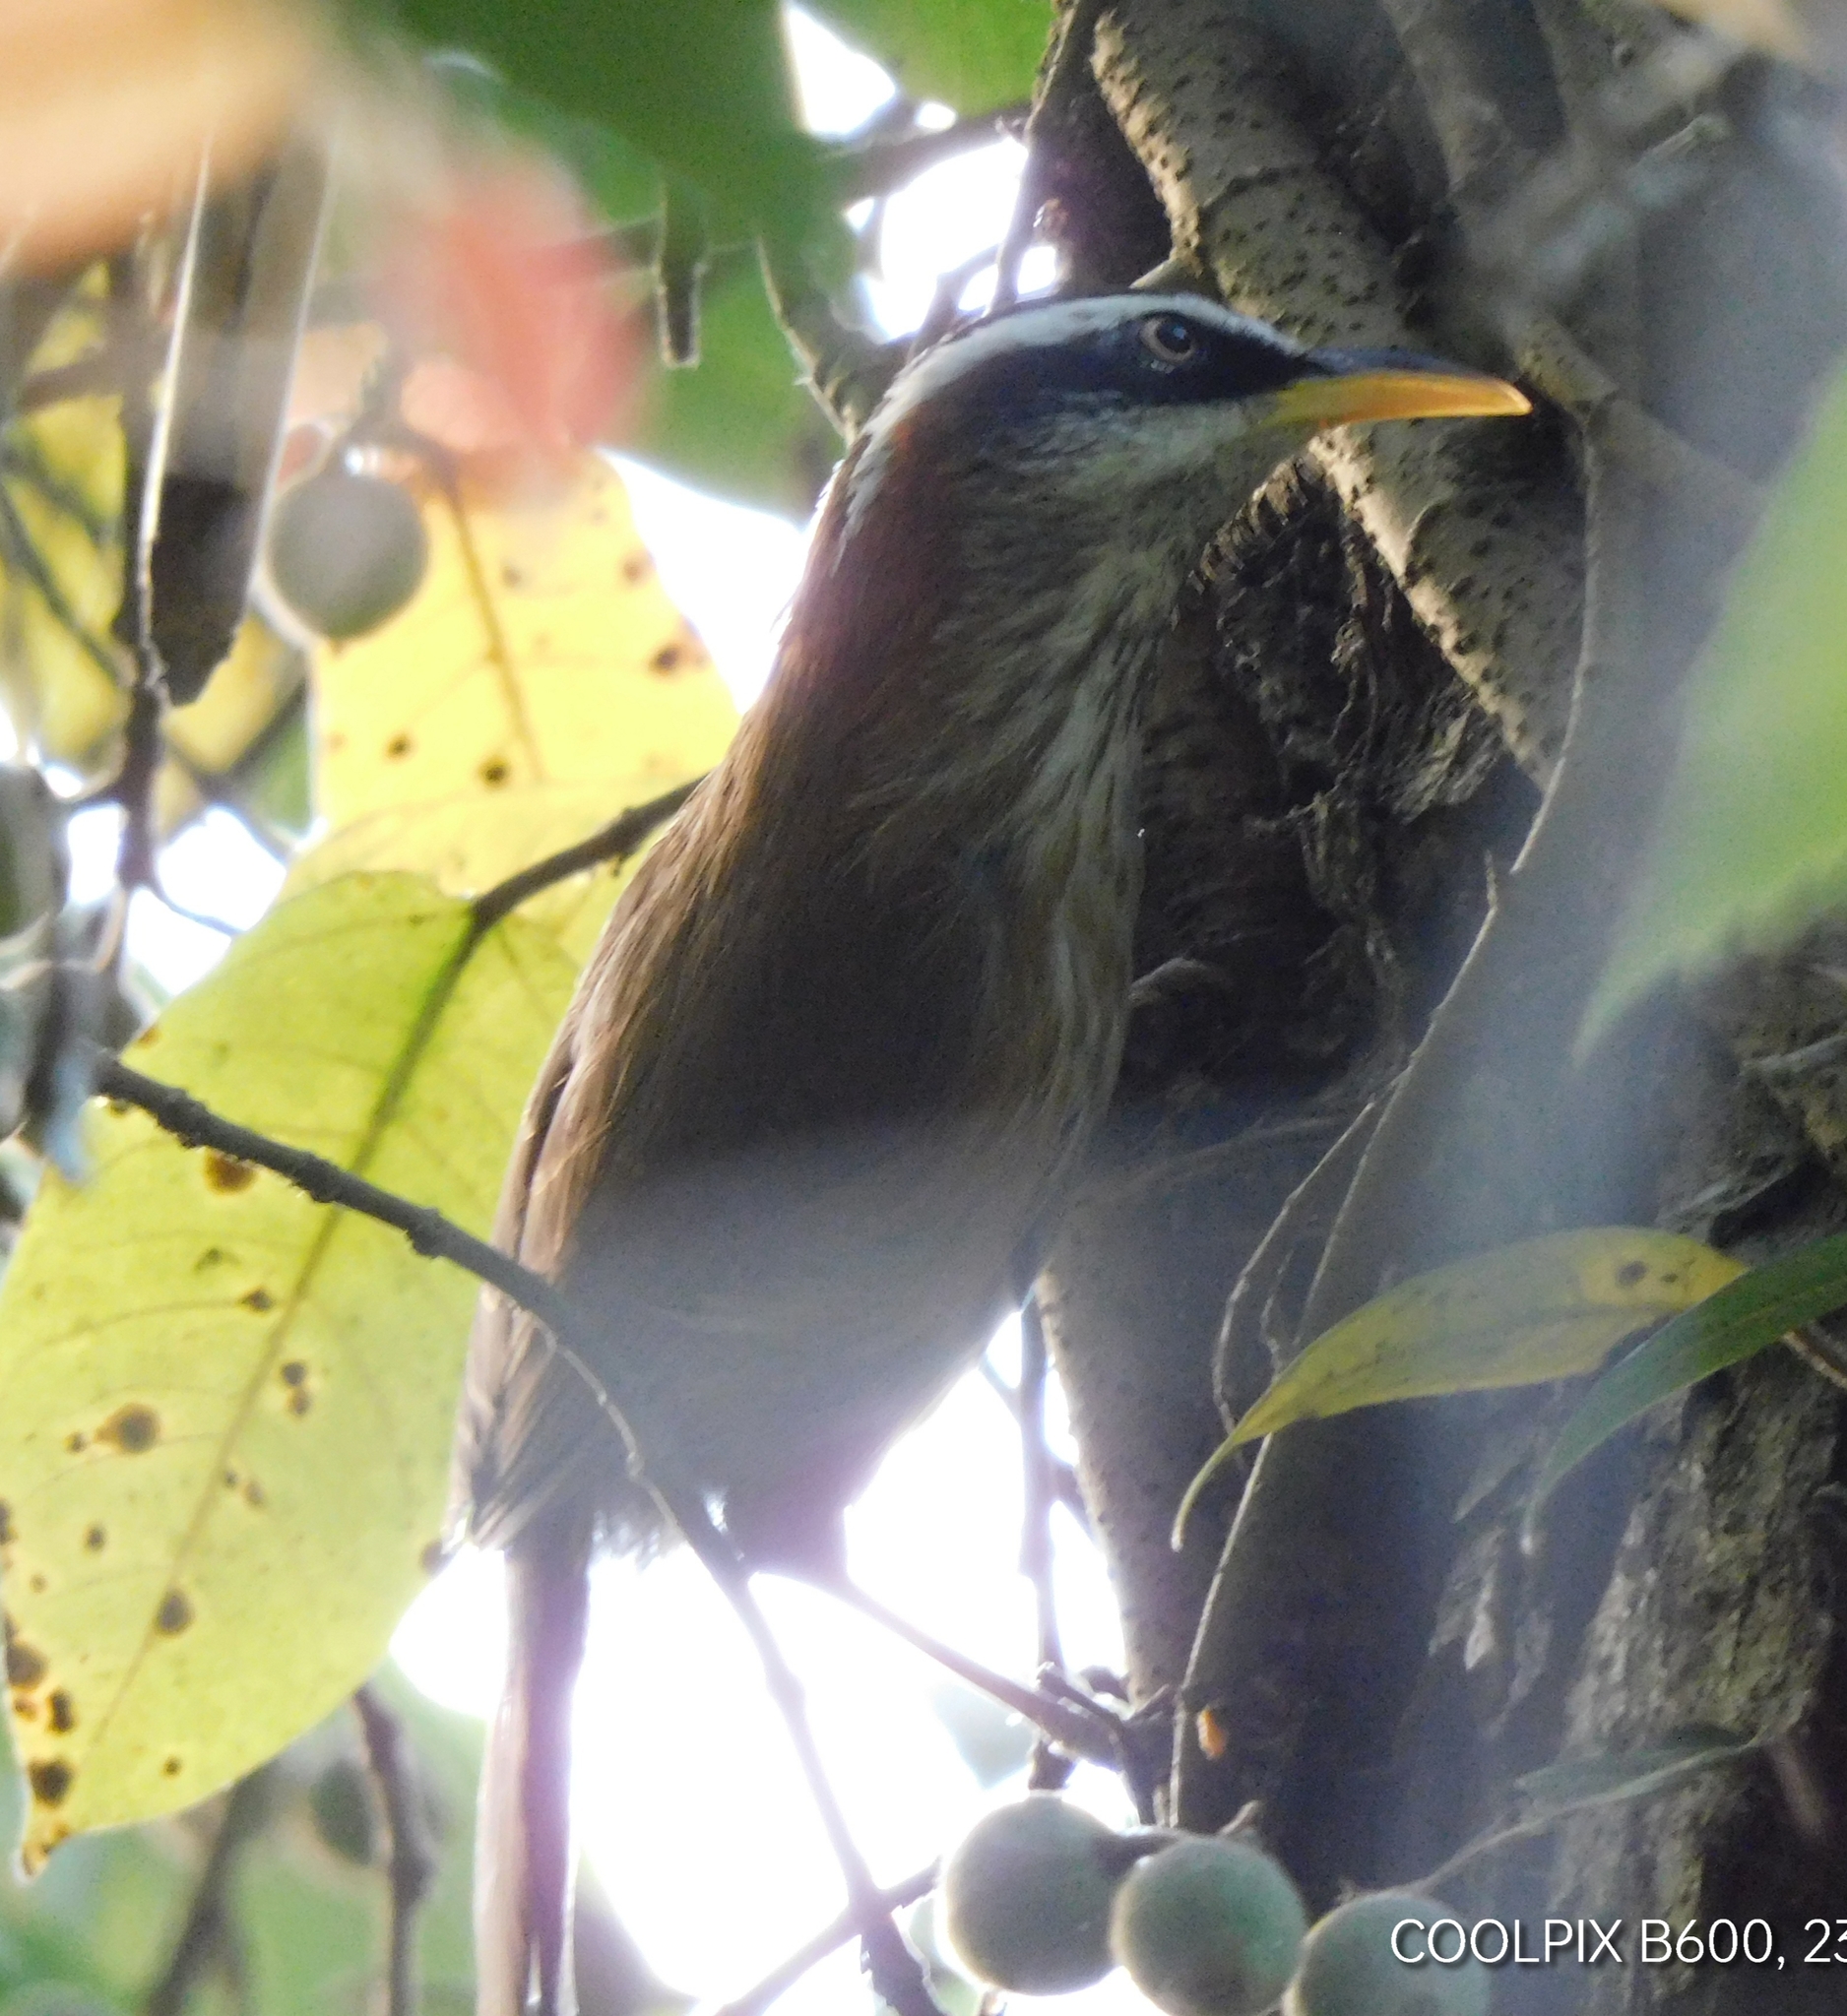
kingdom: Animalia
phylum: Chordata
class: Aves
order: Passeriformes
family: Timaliidae
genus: Pomatorhinus
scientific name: Pomatorhinus ruficollis
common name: Streak-breasted scimitar babbler
